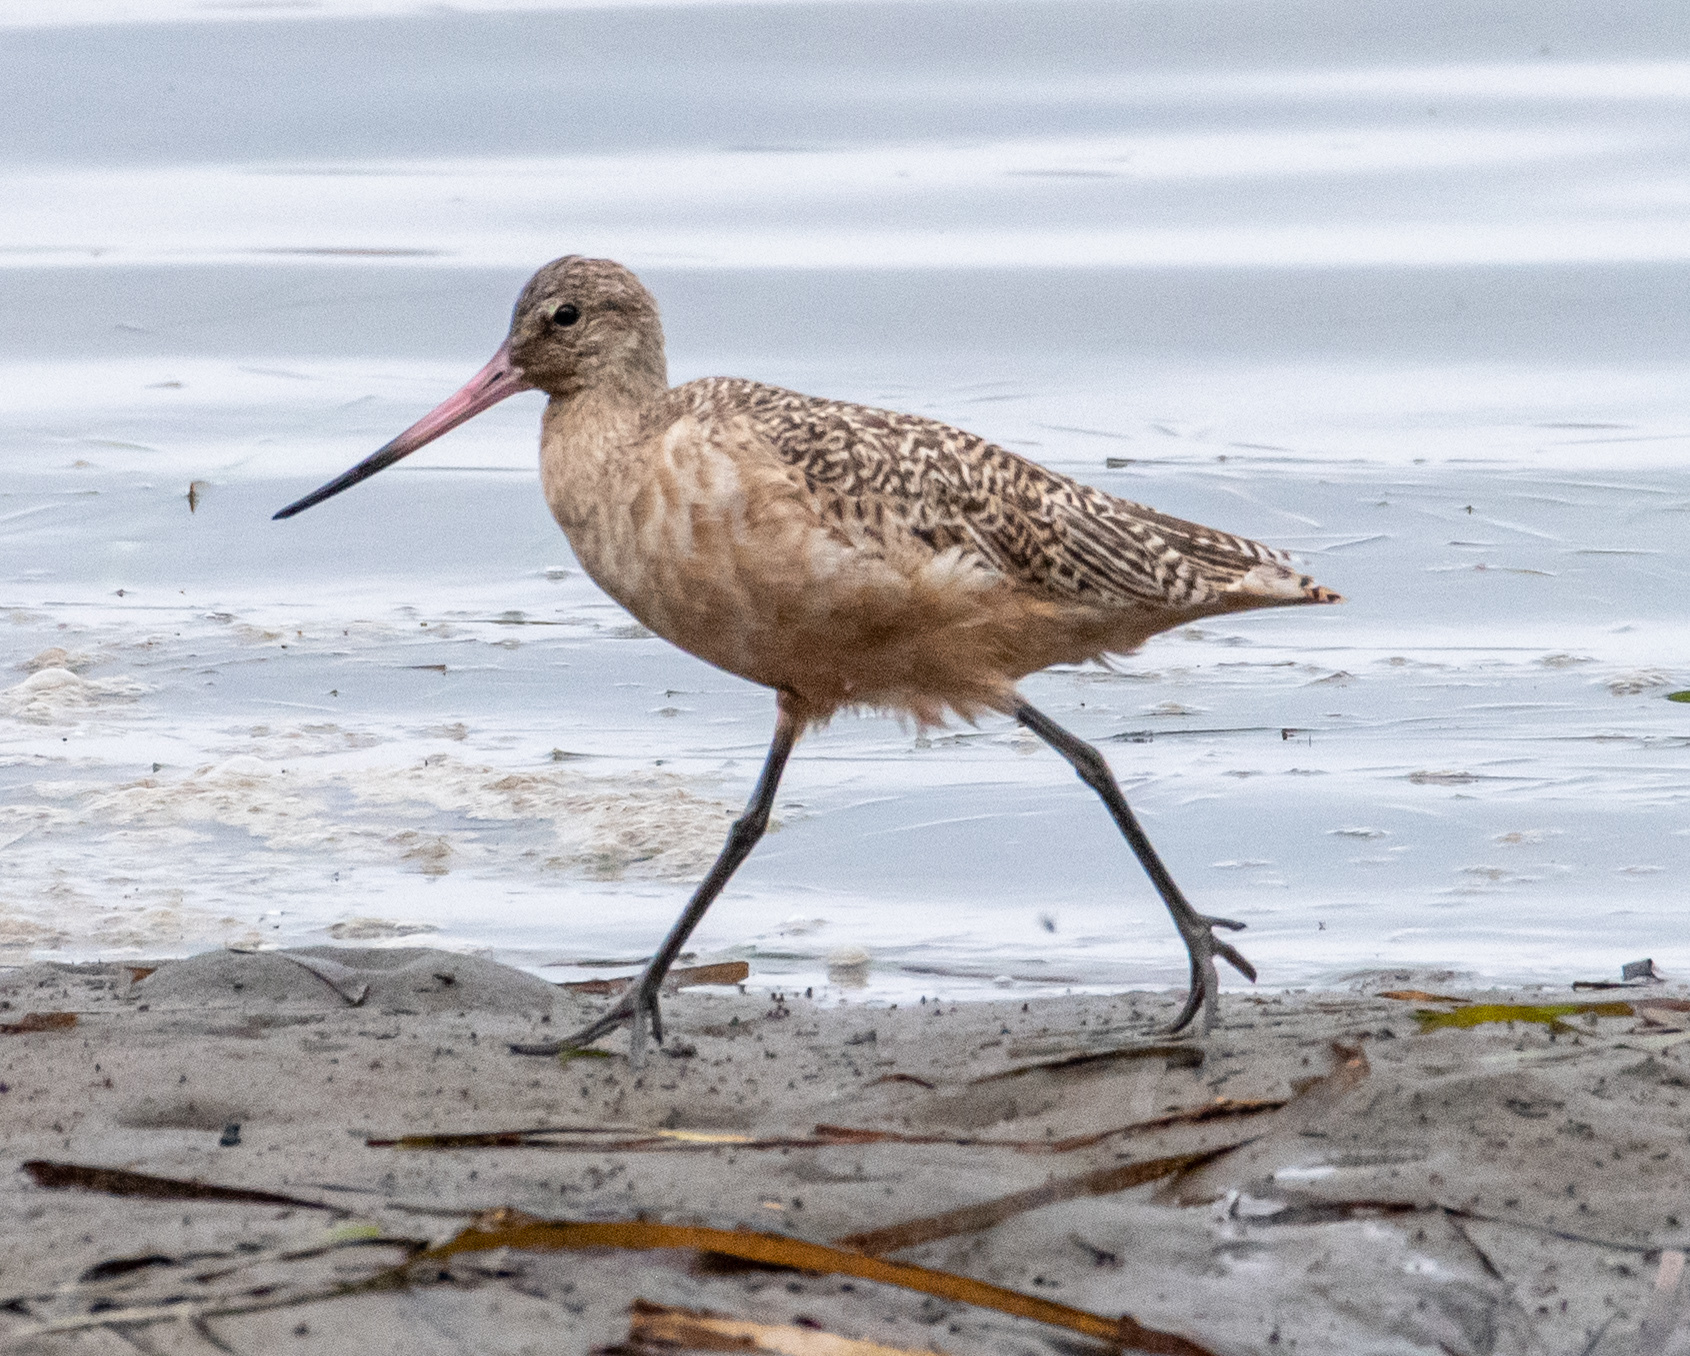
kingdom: Animalia
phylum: Chordata
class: Aves
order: Charadriiformes
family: Scolopacidae
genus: Limosa
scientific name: Limosa fedoa
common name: Marbled godwit
